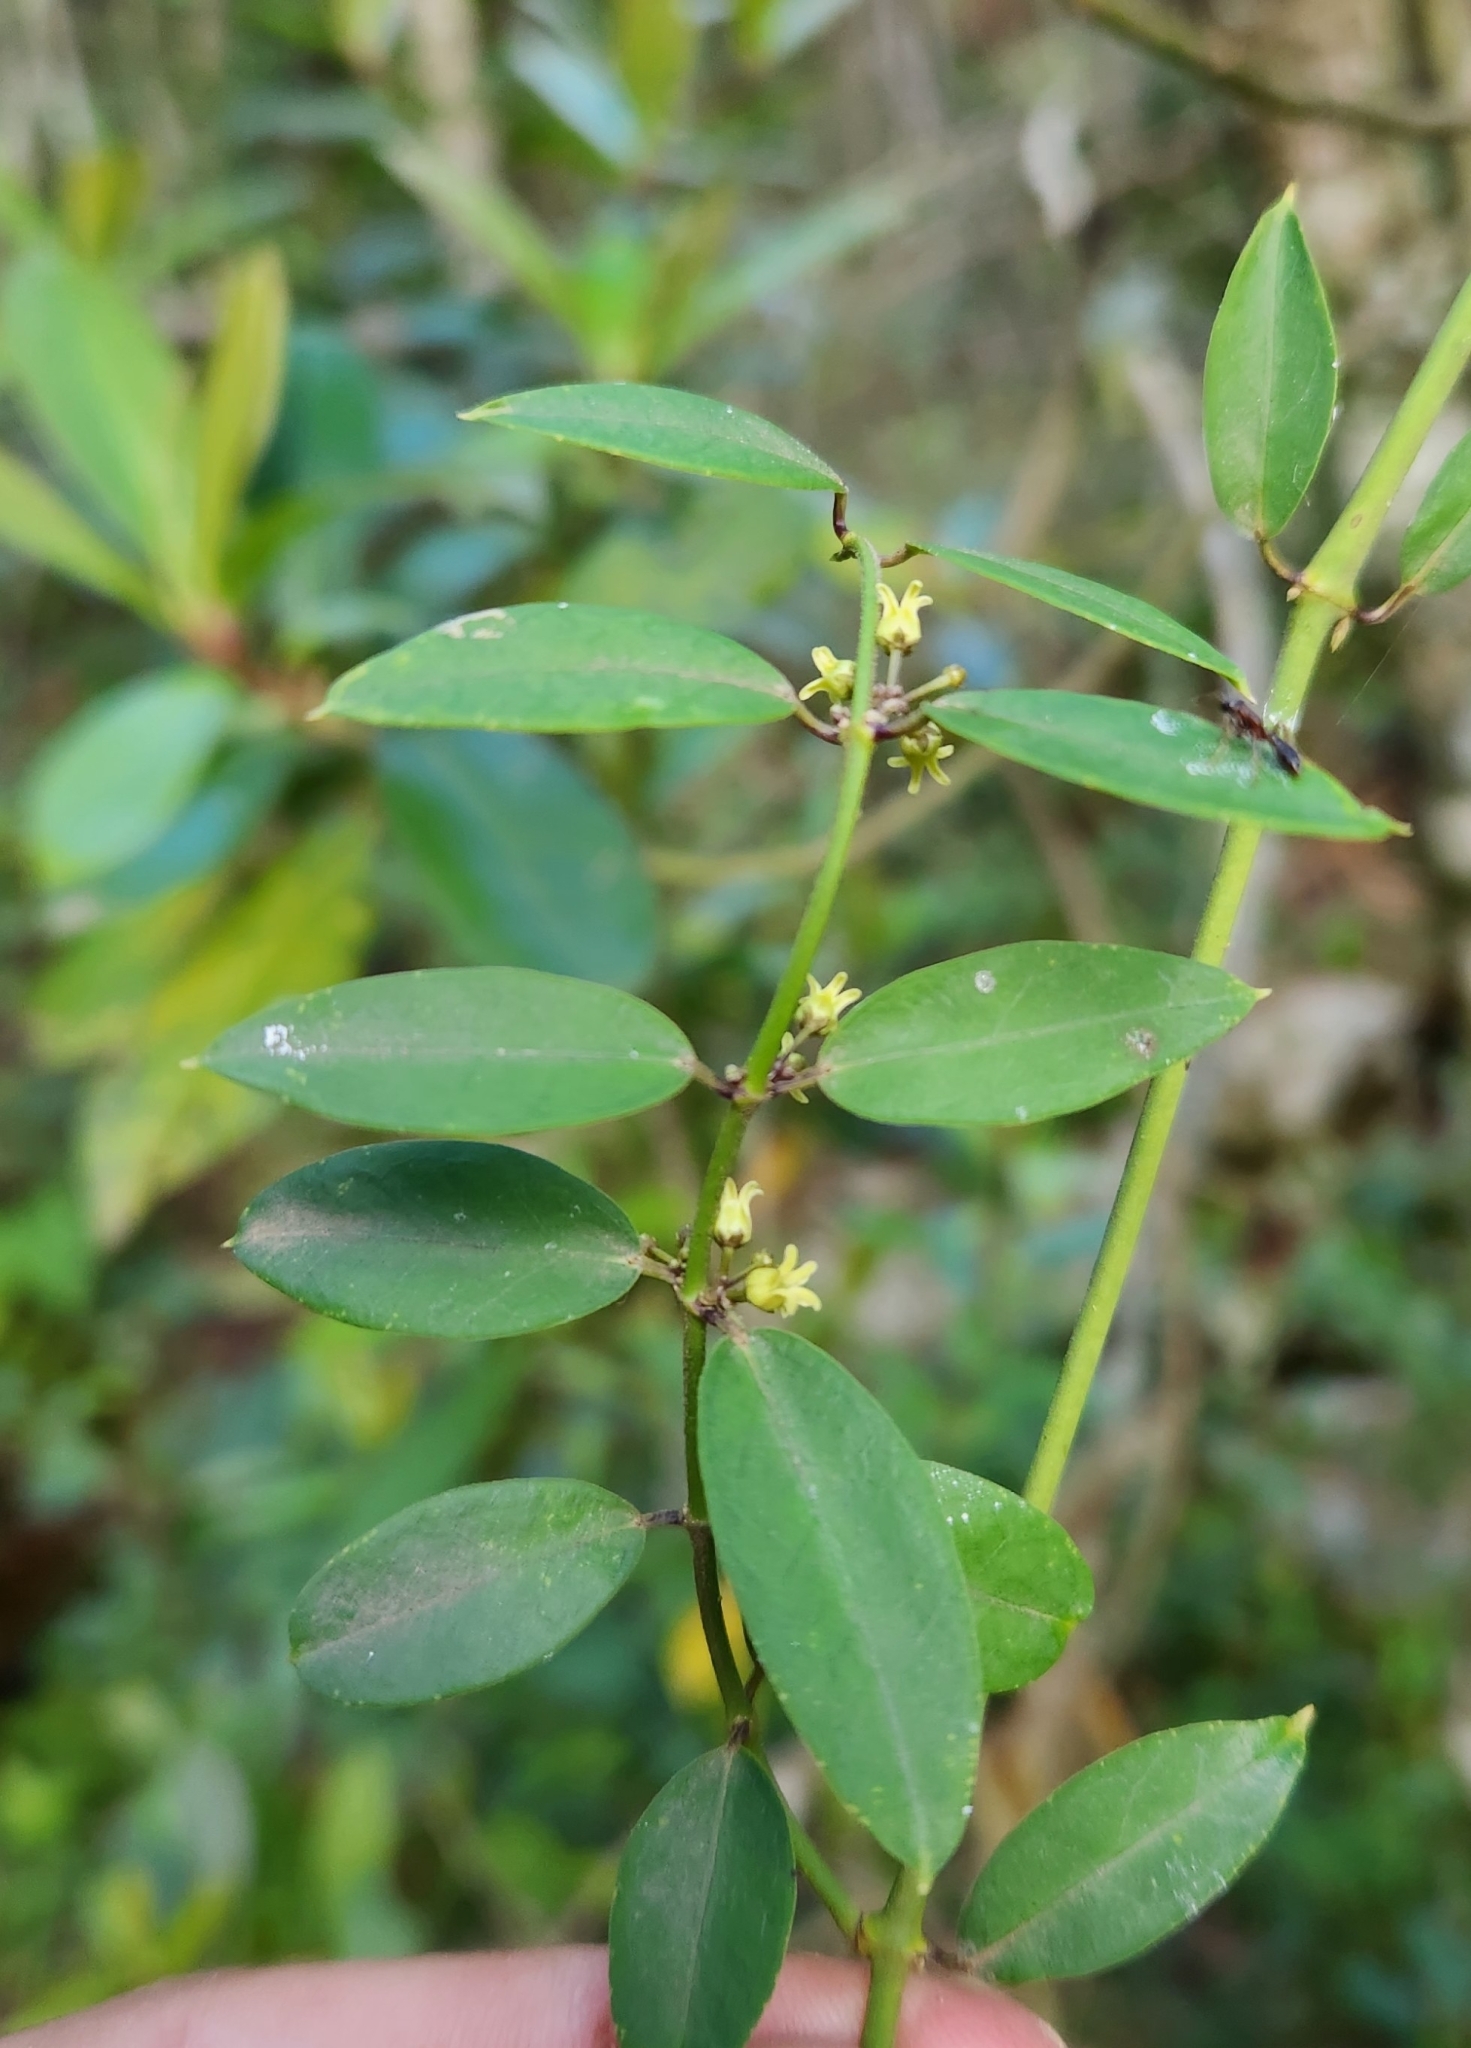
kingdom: Plantae
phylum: Tracheophyta
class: Magnoliopsida
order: Gentianales
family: Apocynaceae
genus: Orthosia
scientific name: Orthosia urceolata
